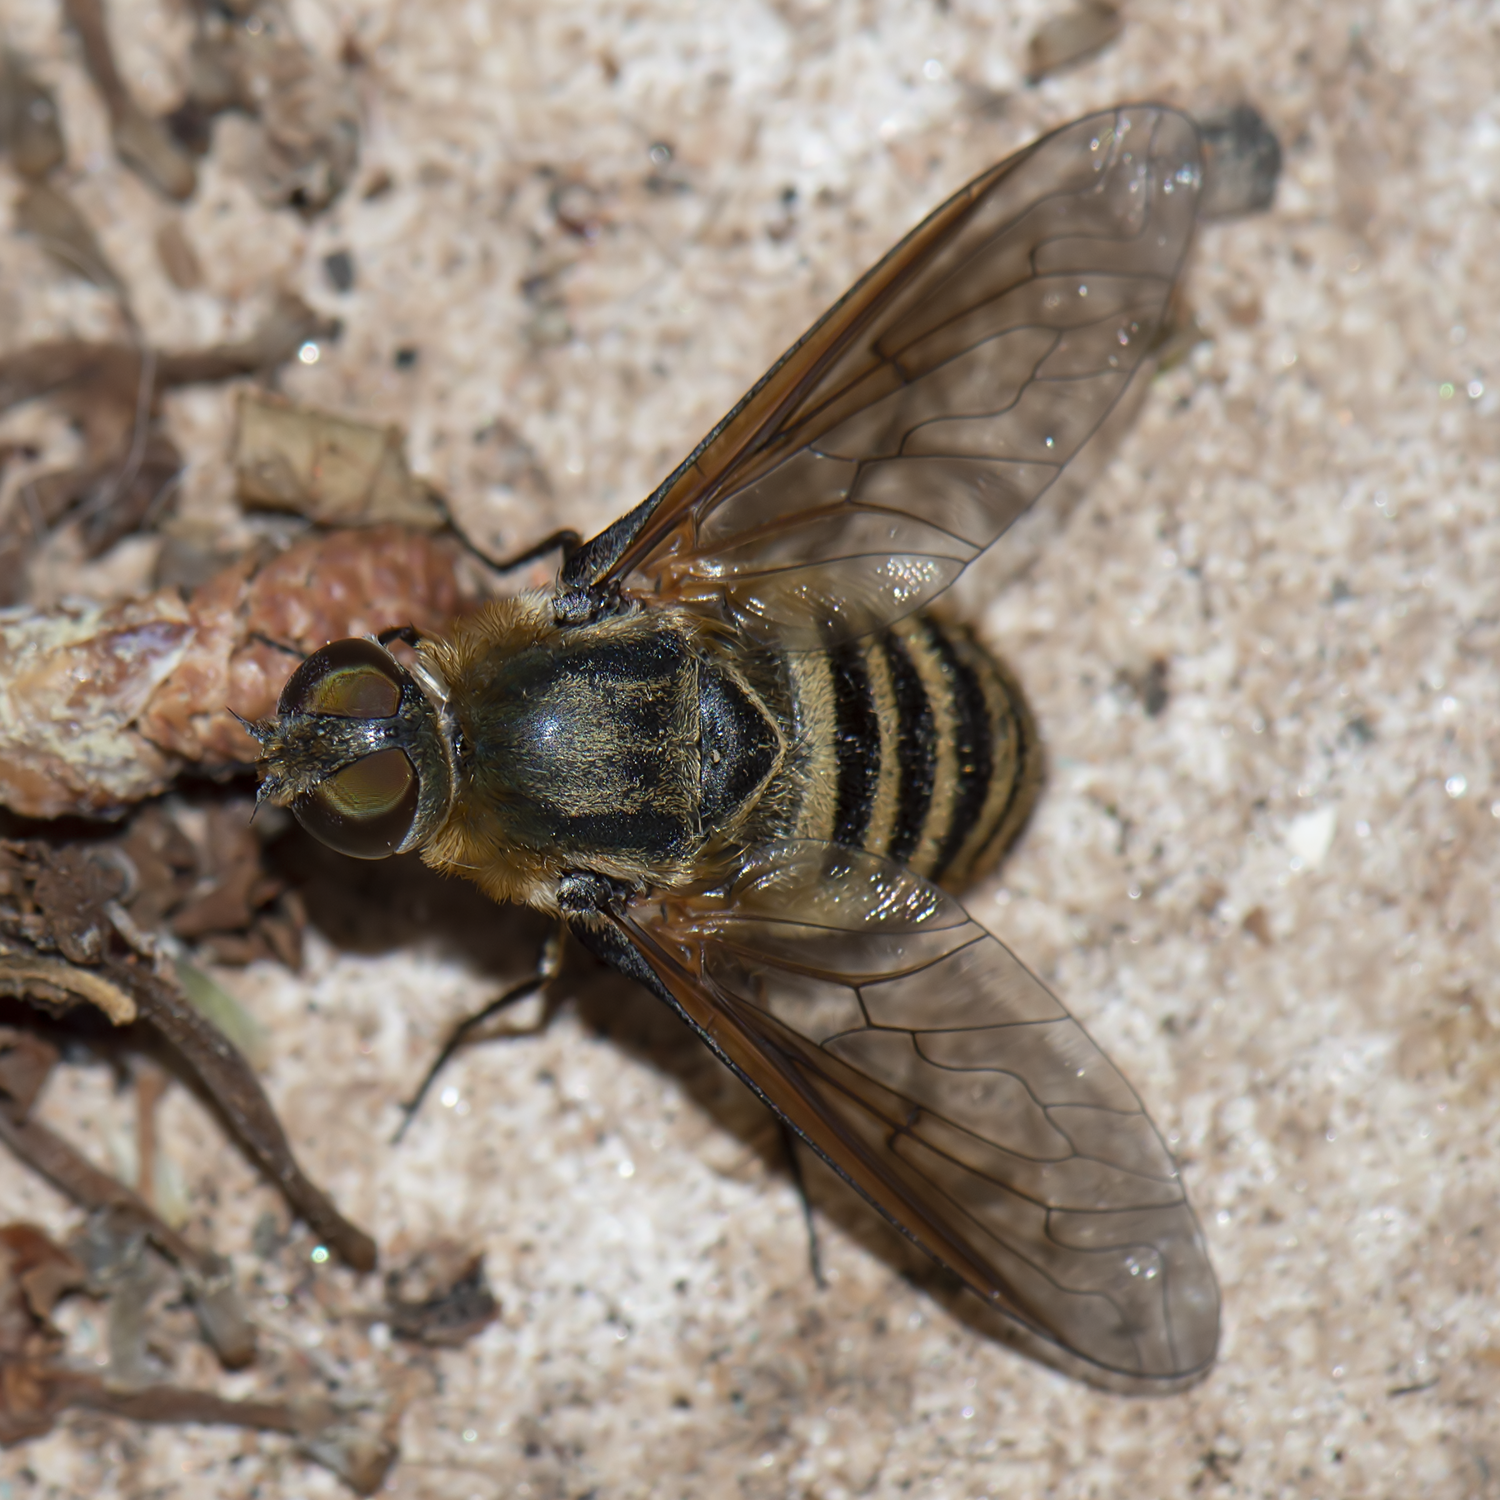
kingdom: Animalia
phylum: Arthropoda
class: Insecta
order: Diptera
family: Bombyliidae
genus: Villa
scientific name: Villa brunnea
